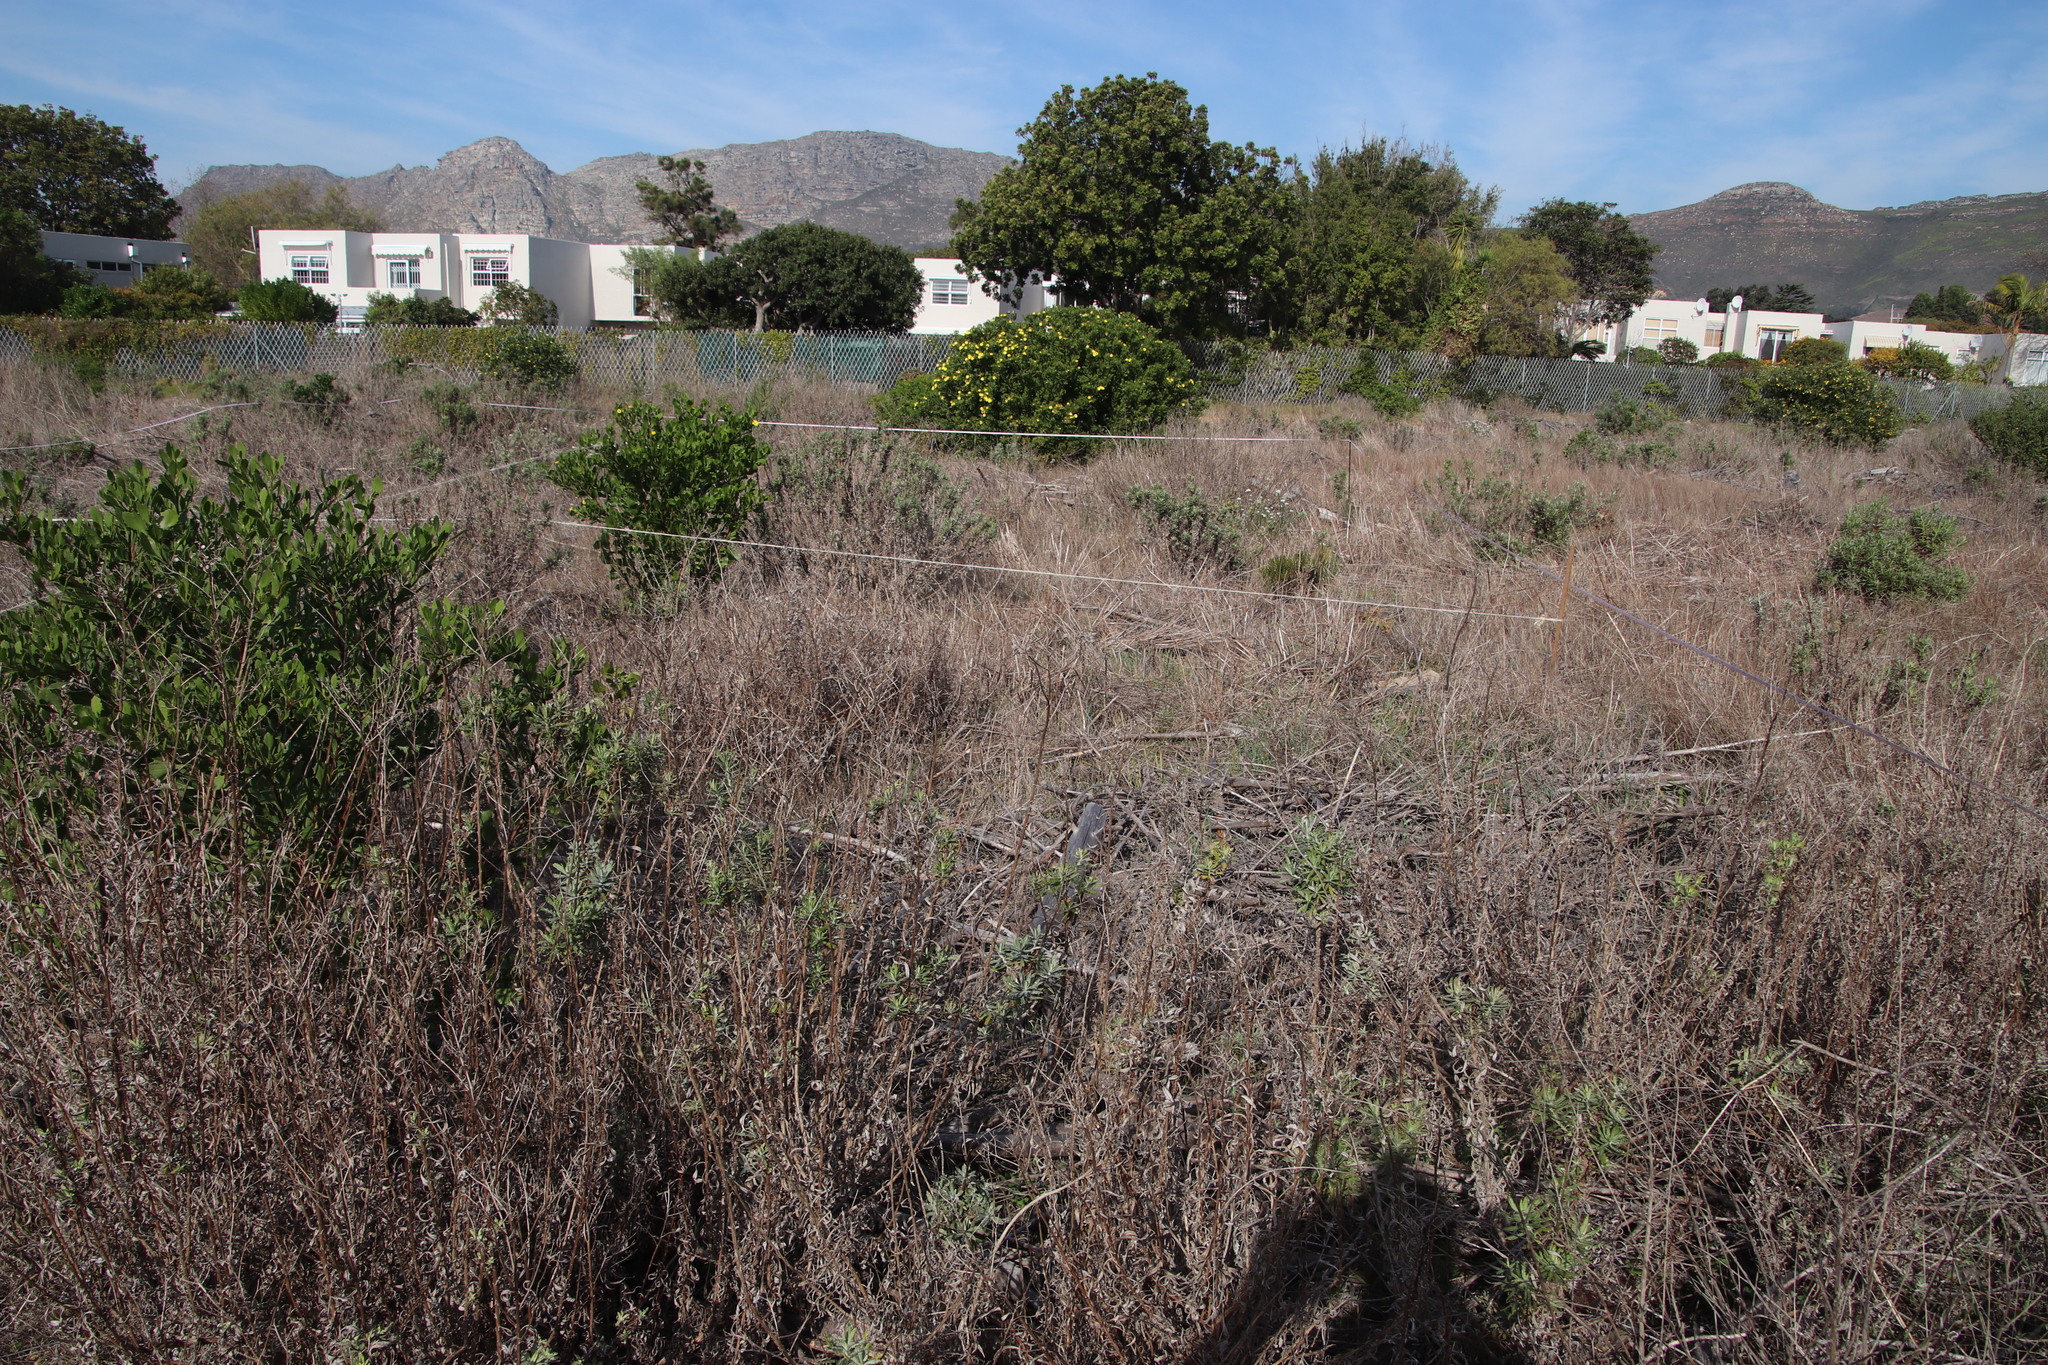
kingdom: Plantae
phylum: Tracheophyta
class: Magnoliopsida
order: Asterales
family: Asteraceae
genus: Senecio
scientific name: Senecio pterophorus
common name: Shoddy ragwort
